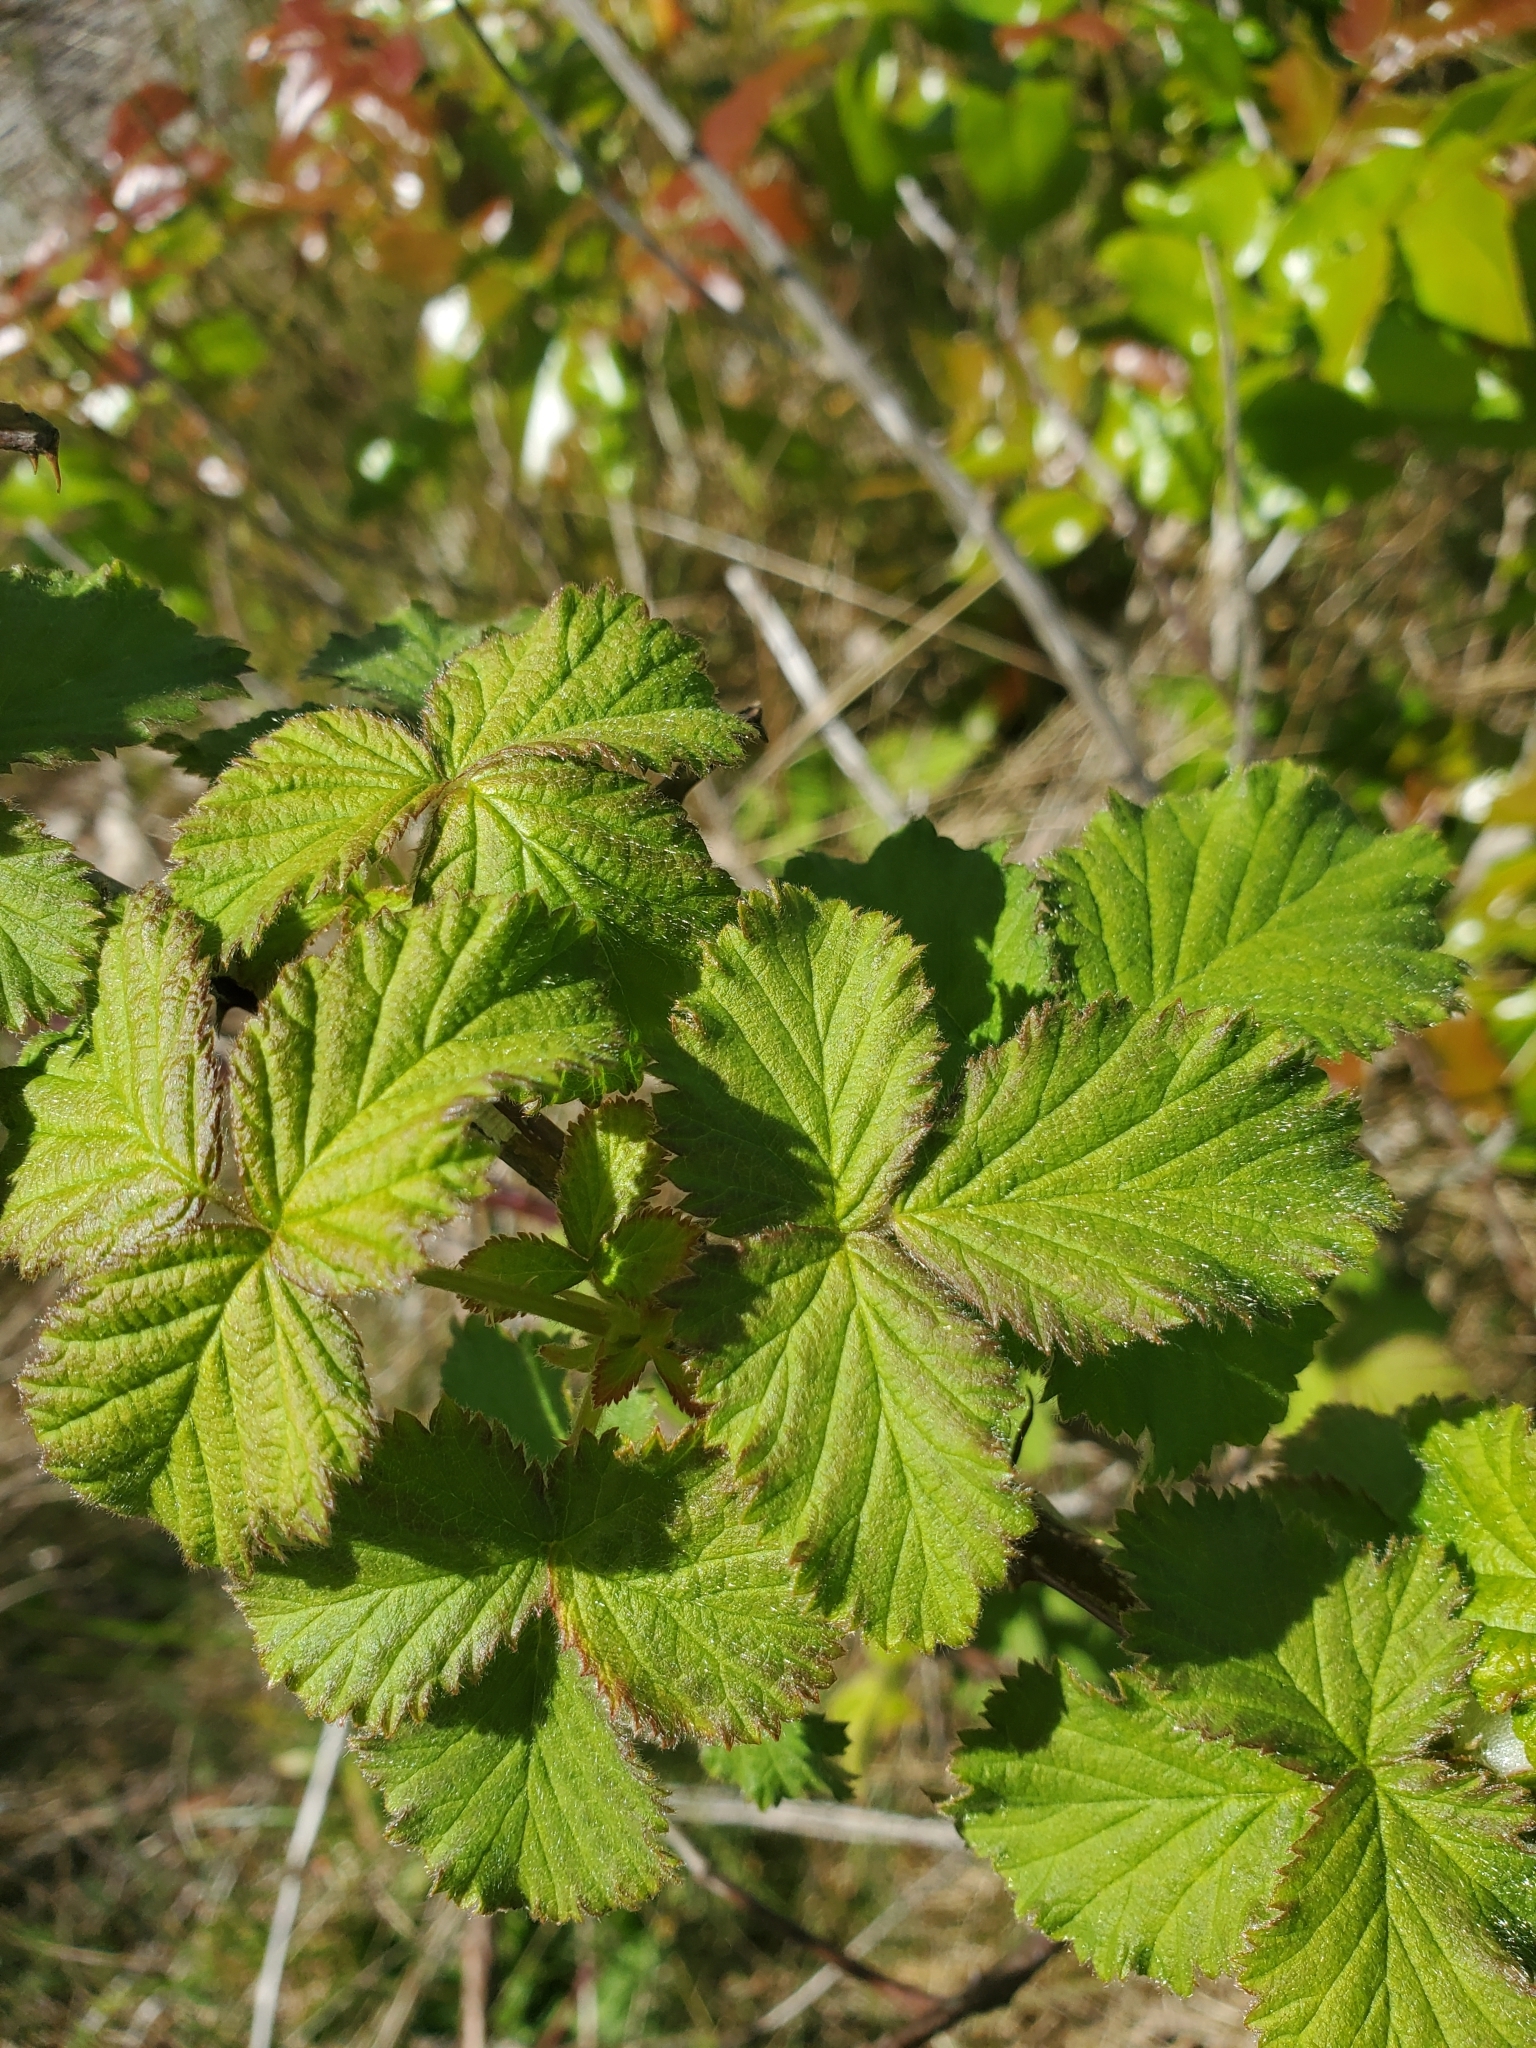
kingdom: Plantae
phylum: Tracheophyta
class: Magnoliopsida
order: Rosales
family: Rosaceae
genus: Rubus
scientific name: Rubus bifrons
